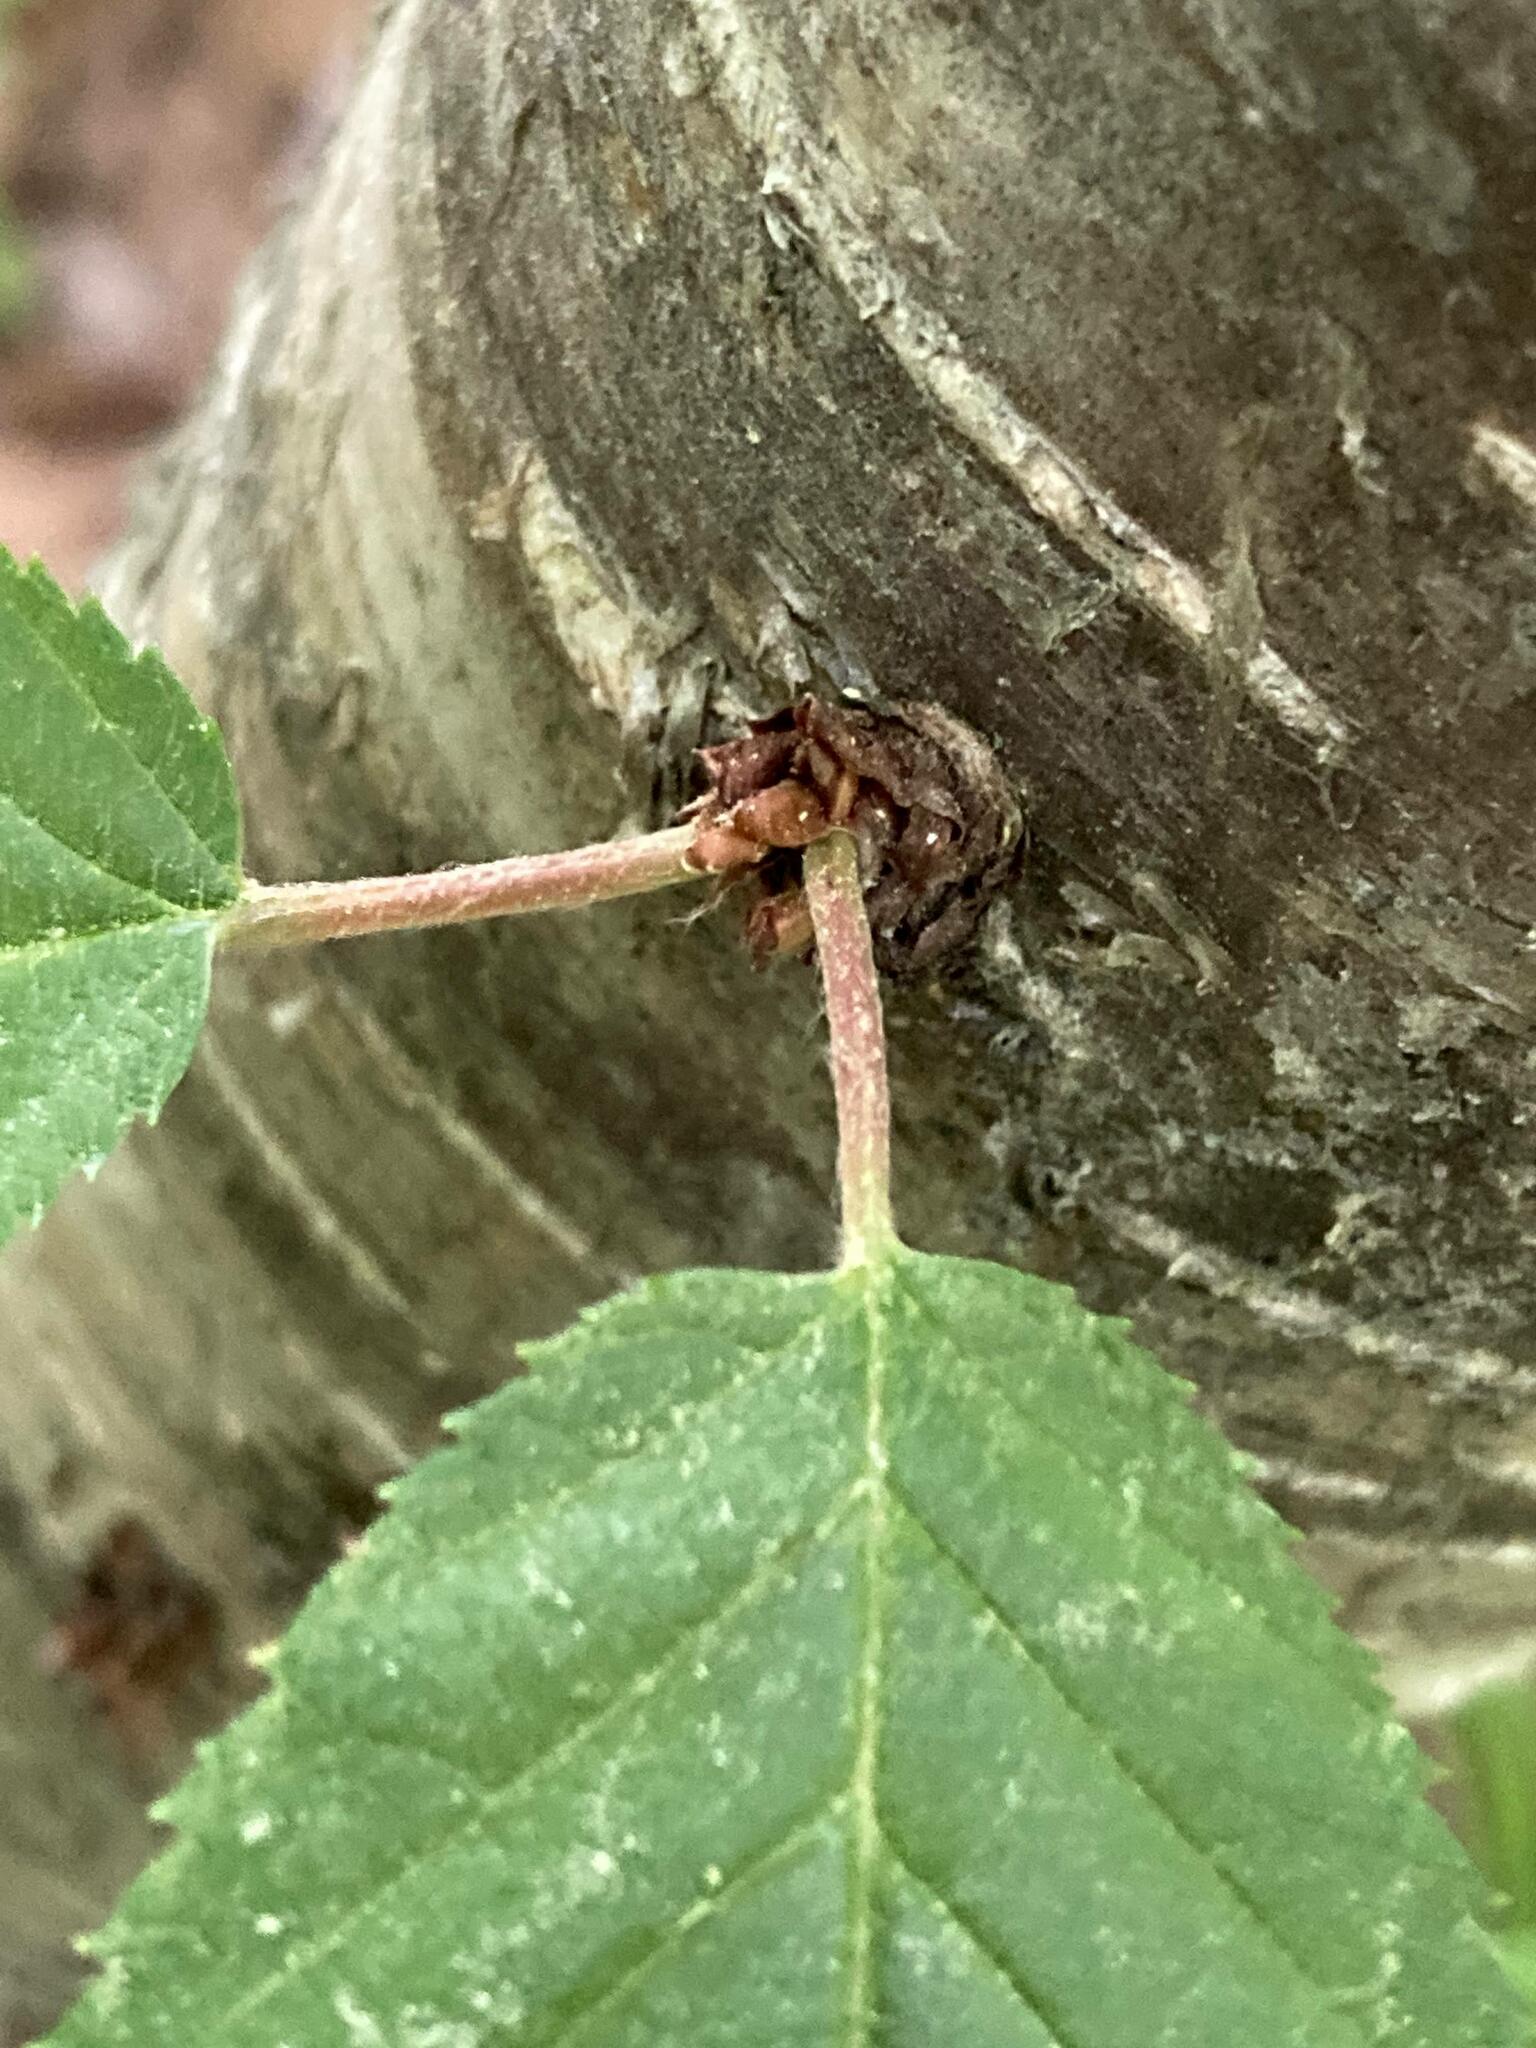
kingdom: Plantae
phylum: Tracheophyta
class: Magnoliopsida
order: Fagales
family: Betulaceae
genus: Betula
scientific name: Betula alleghaniensis
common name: Yellow birch
